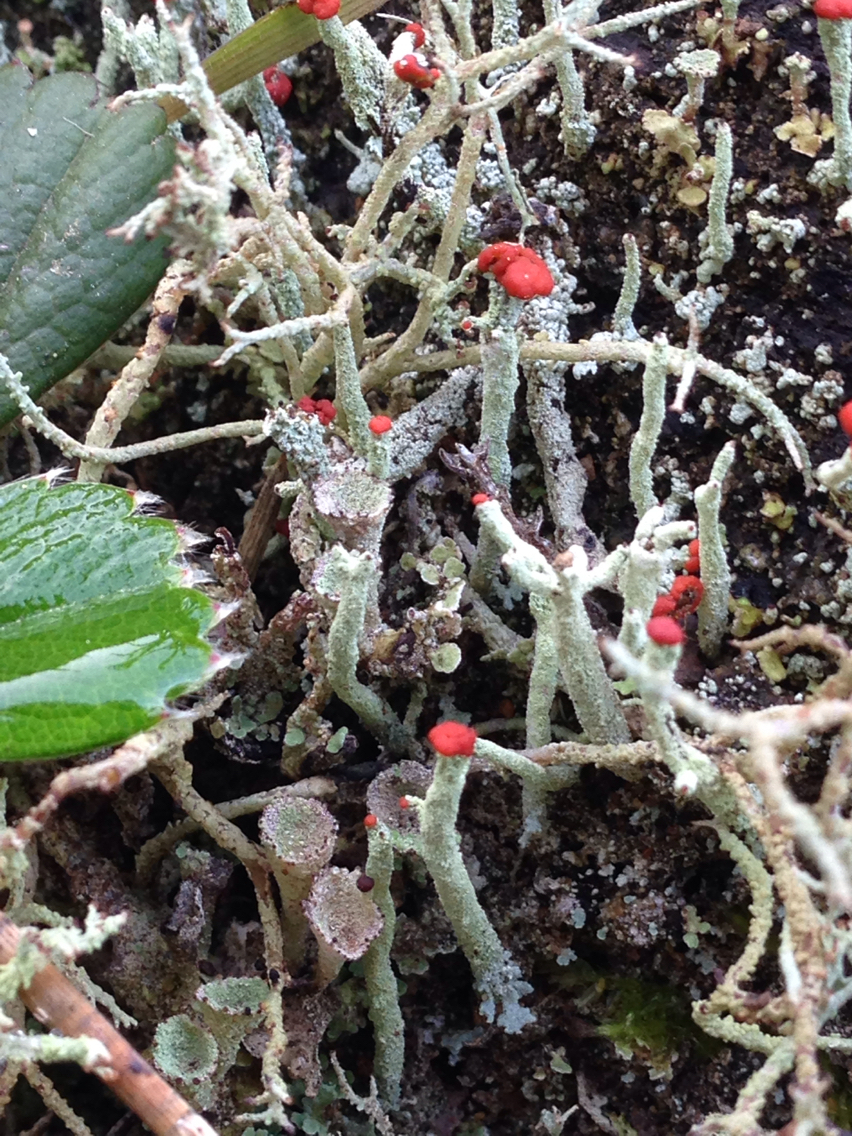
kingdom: Fungi
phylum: Ascomycota
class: Lecanoromycetes
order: Lecanorales
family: Cladoniaceae
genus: Cladonia
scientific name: Cladonia macilenta
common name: Lipstick powderhorn
